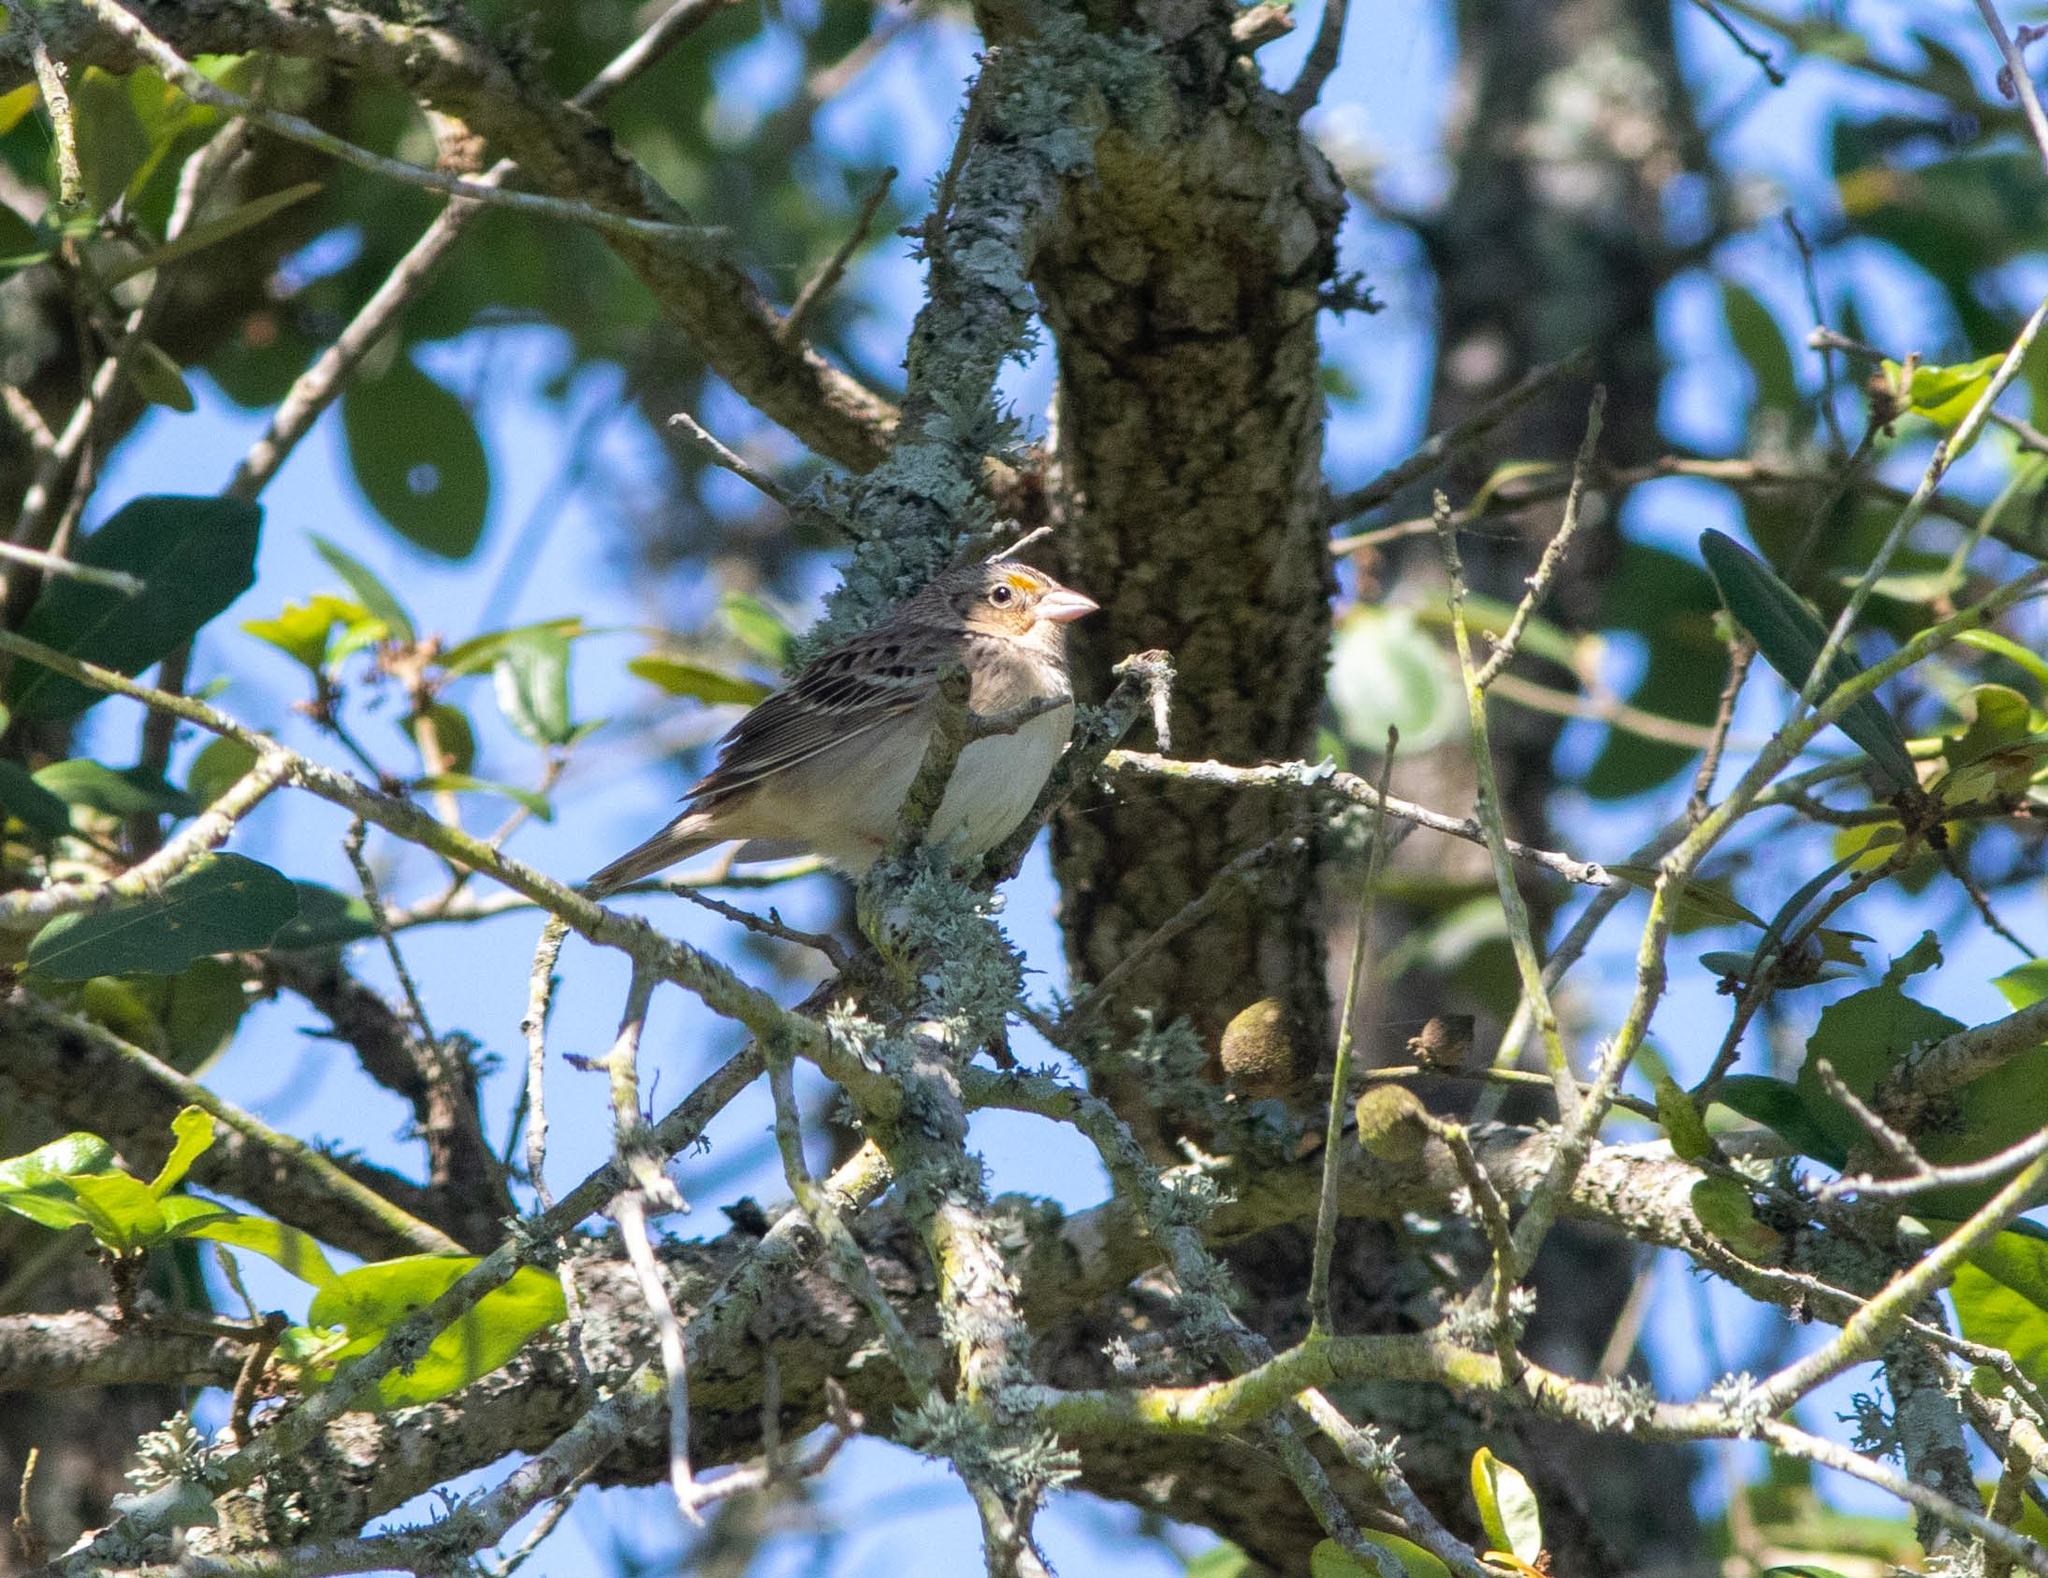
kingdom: Animalia
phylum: Chordata
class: Aves
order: Passeriformes
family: Passerellidae
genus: Ammodramus
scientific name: Ammodramus savannarum
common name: Grasshopper sparrow
